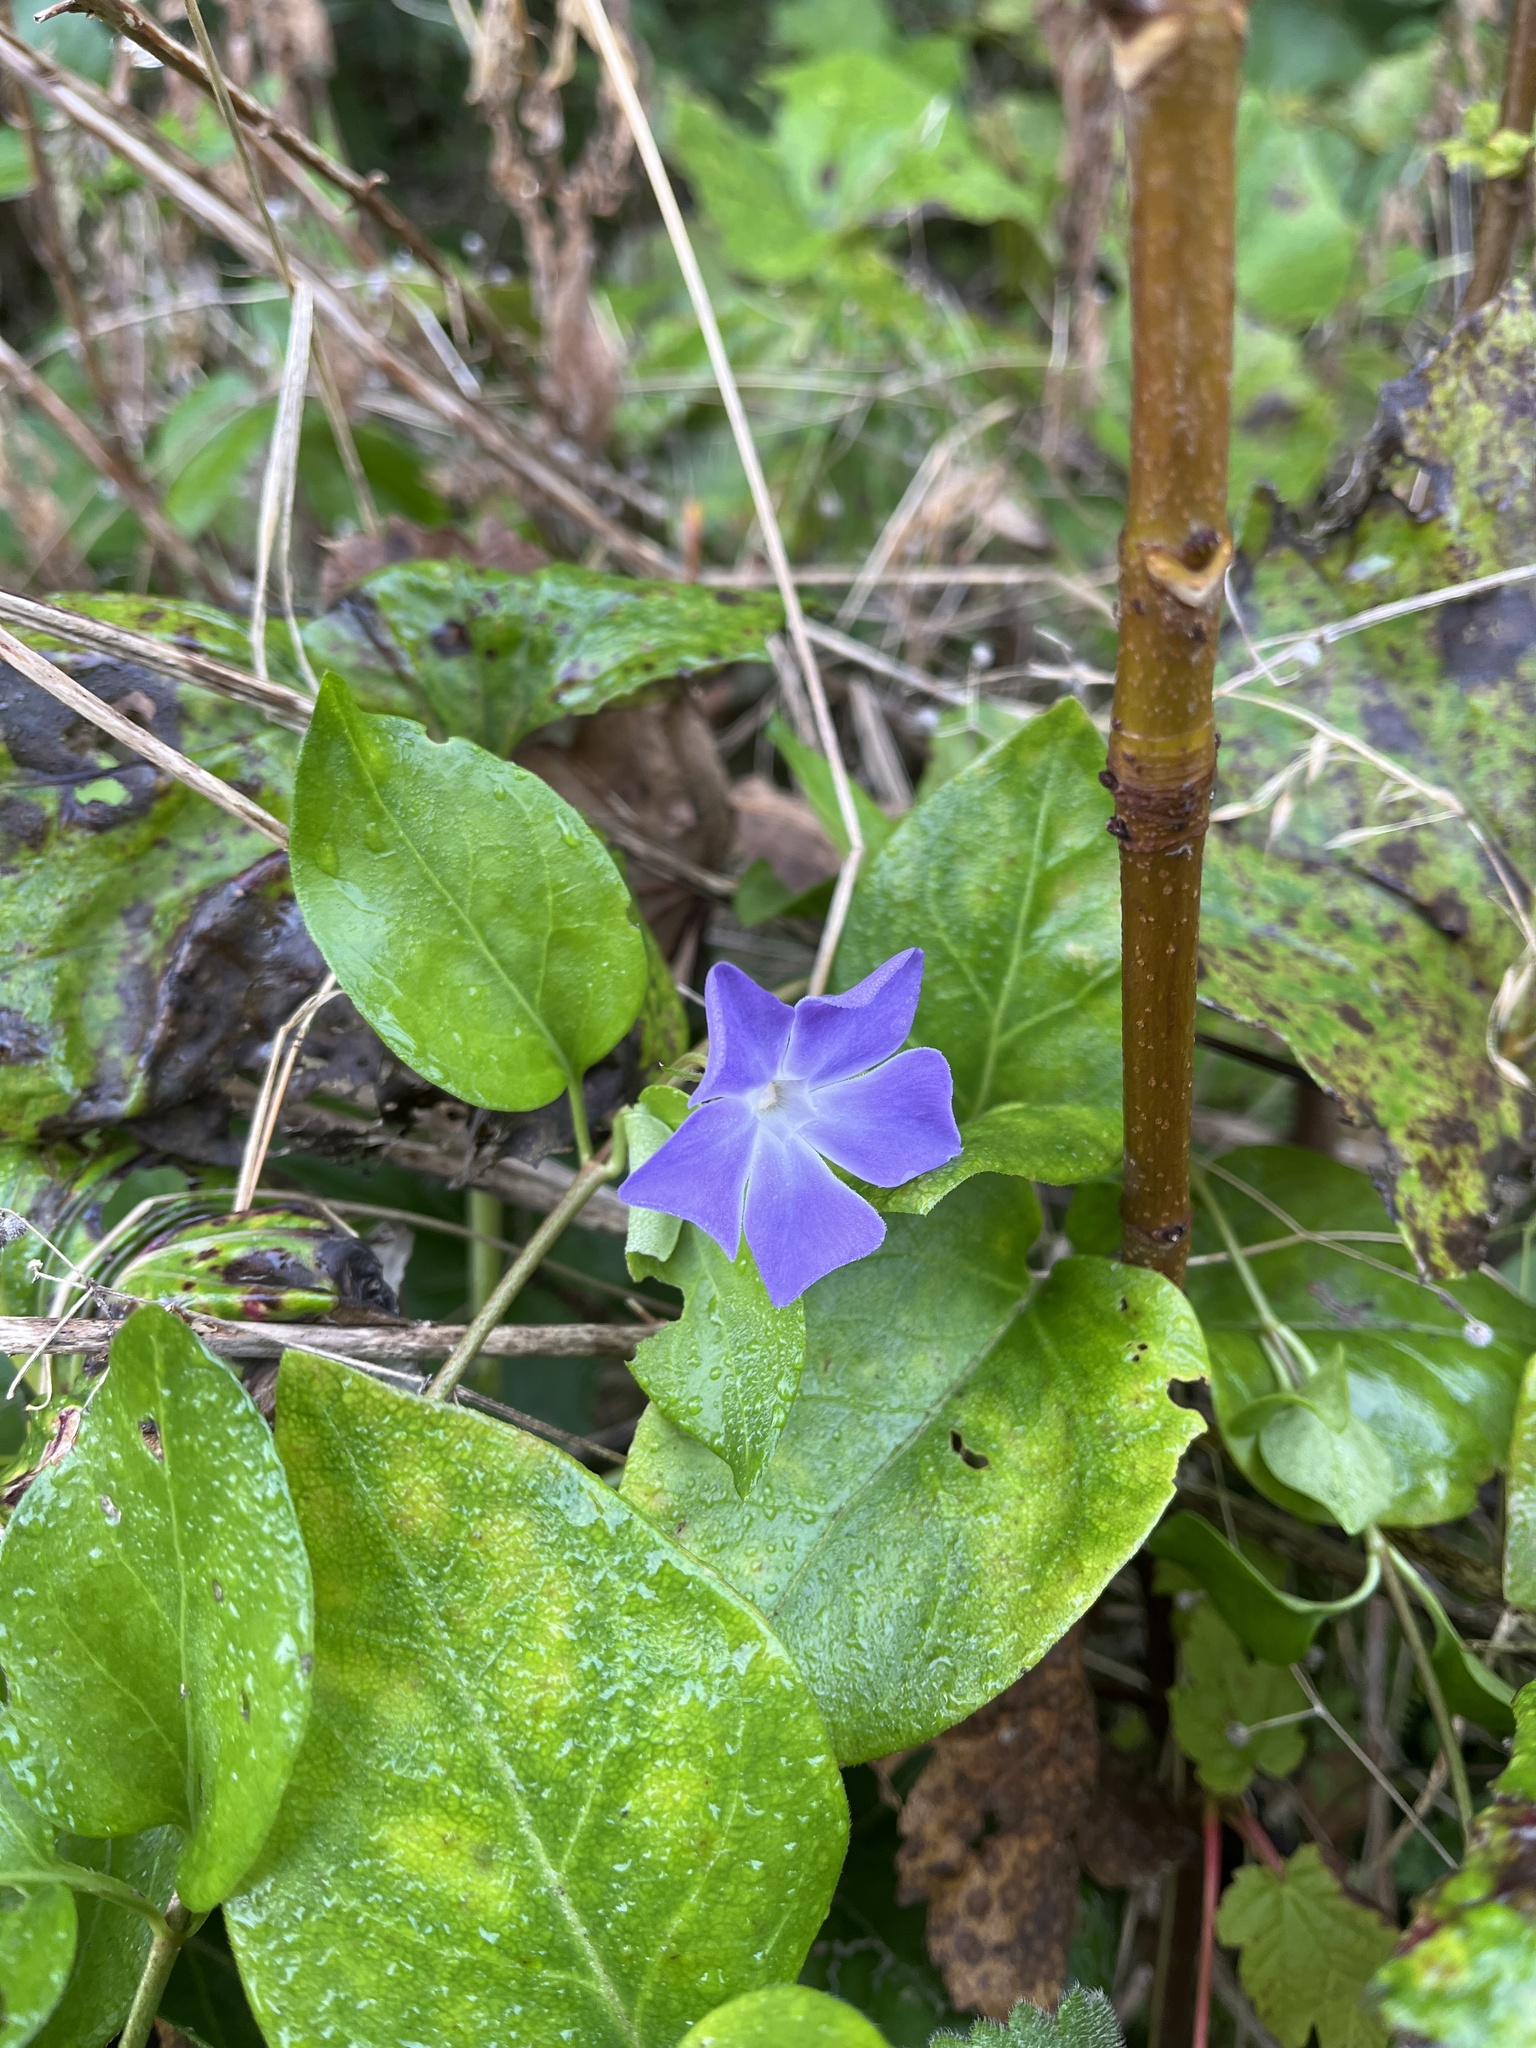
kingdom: Plantae
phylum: Tracheophyta
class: Magnoliopsida
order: Gentianales
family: Apocynaceae
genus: Vinca
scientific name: Vinca major
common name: Greater periwinkle
